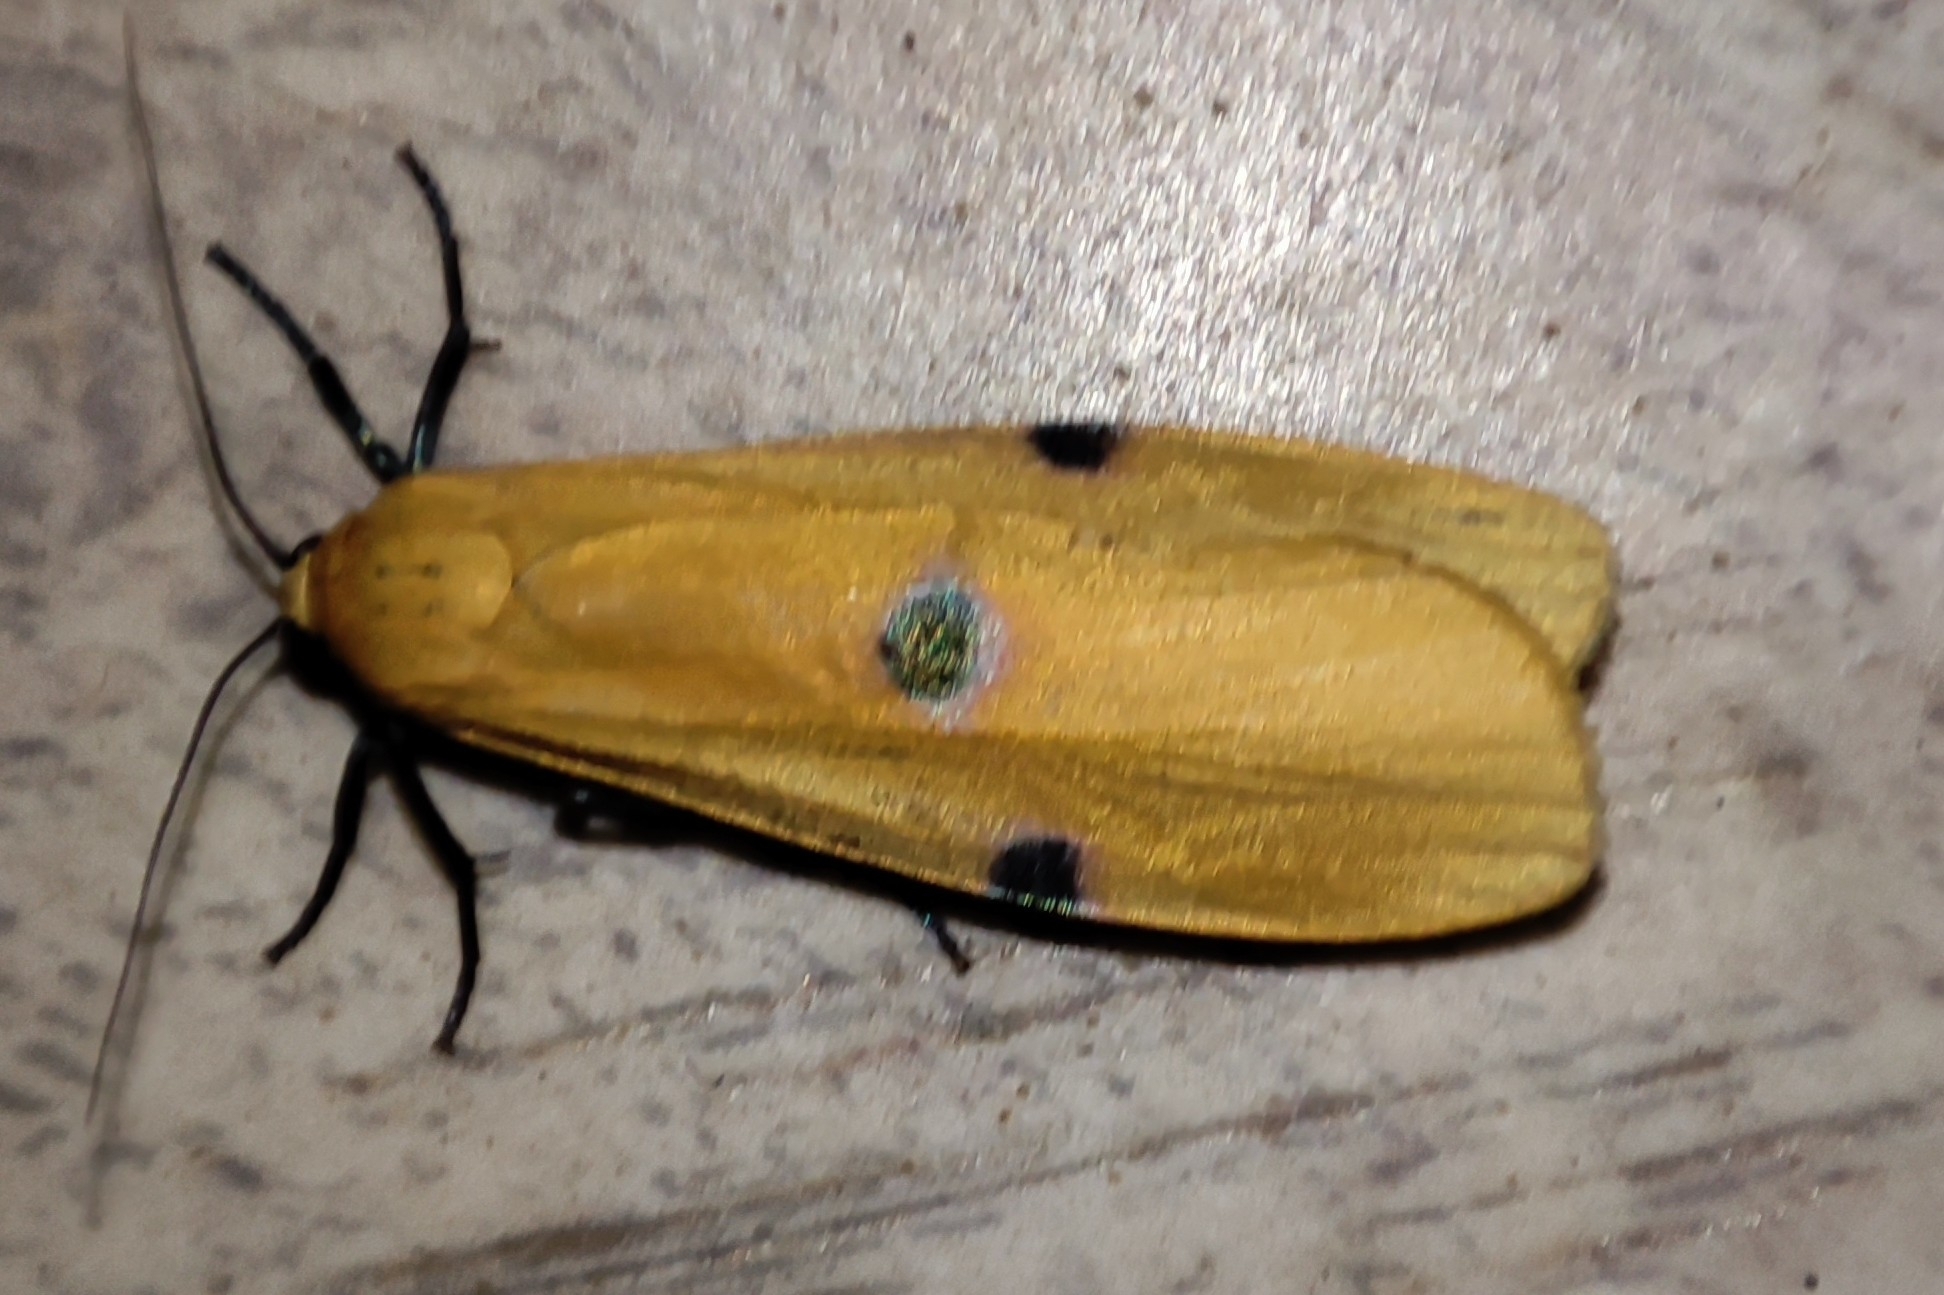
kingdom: Animalia
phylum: Arthropoda
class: Insecta
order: Lepidoptera
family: Erebidae
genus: Lithosia
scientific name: Lithosia quadra
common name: Four-spotted footman
